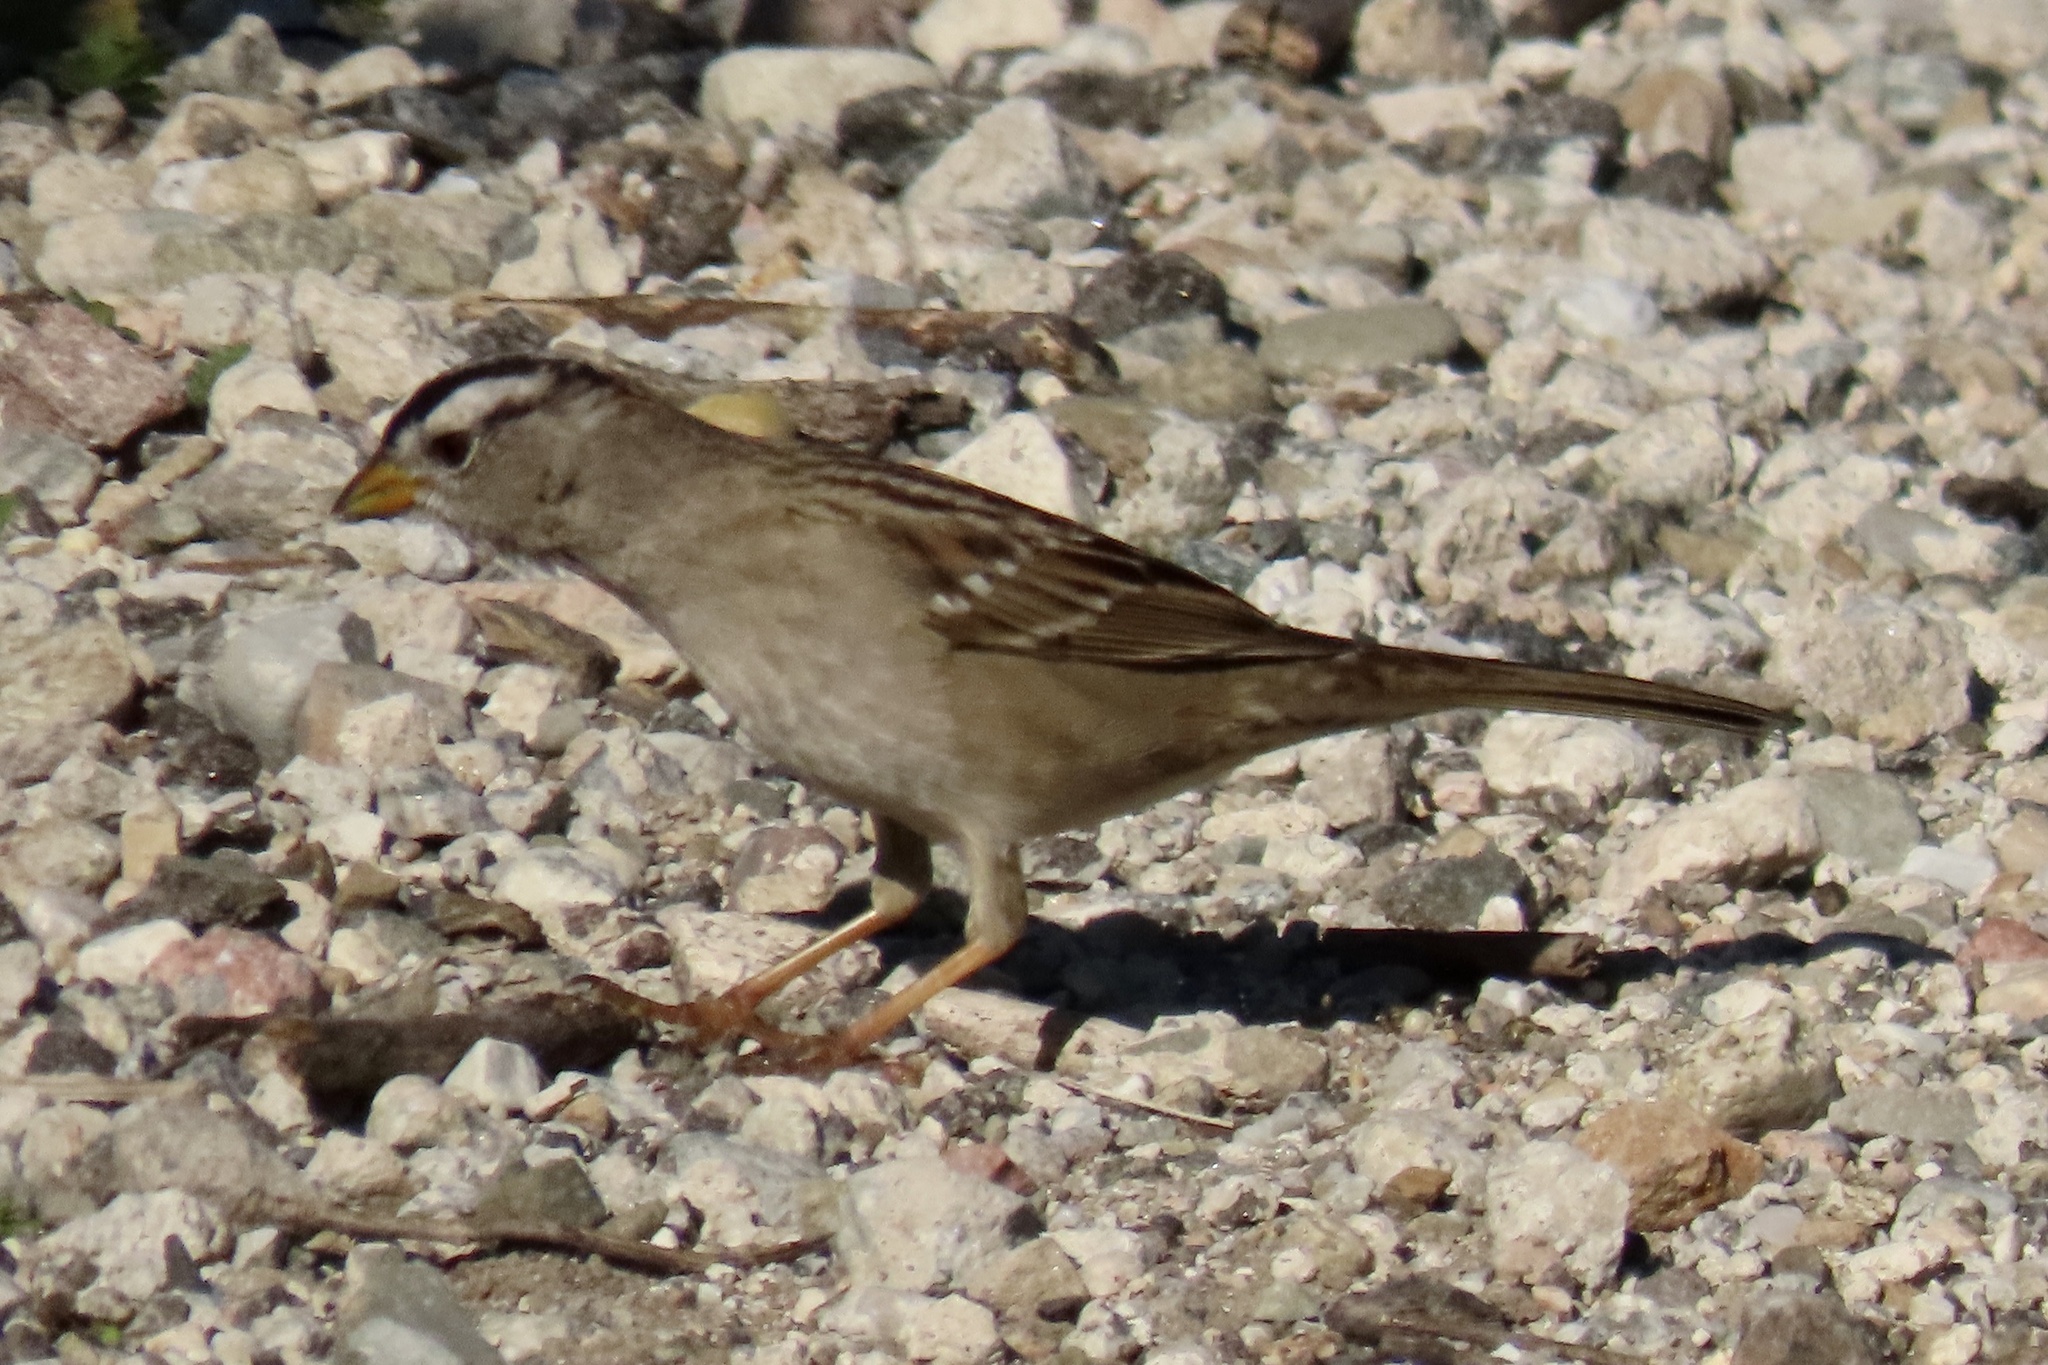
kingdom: Animalia
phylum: Chordata
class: Aves
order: Passeriformes
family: Passerellidae
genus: Zonotrichia
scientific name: Zonotrichia leucophrys
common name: White-crowned sparrow
